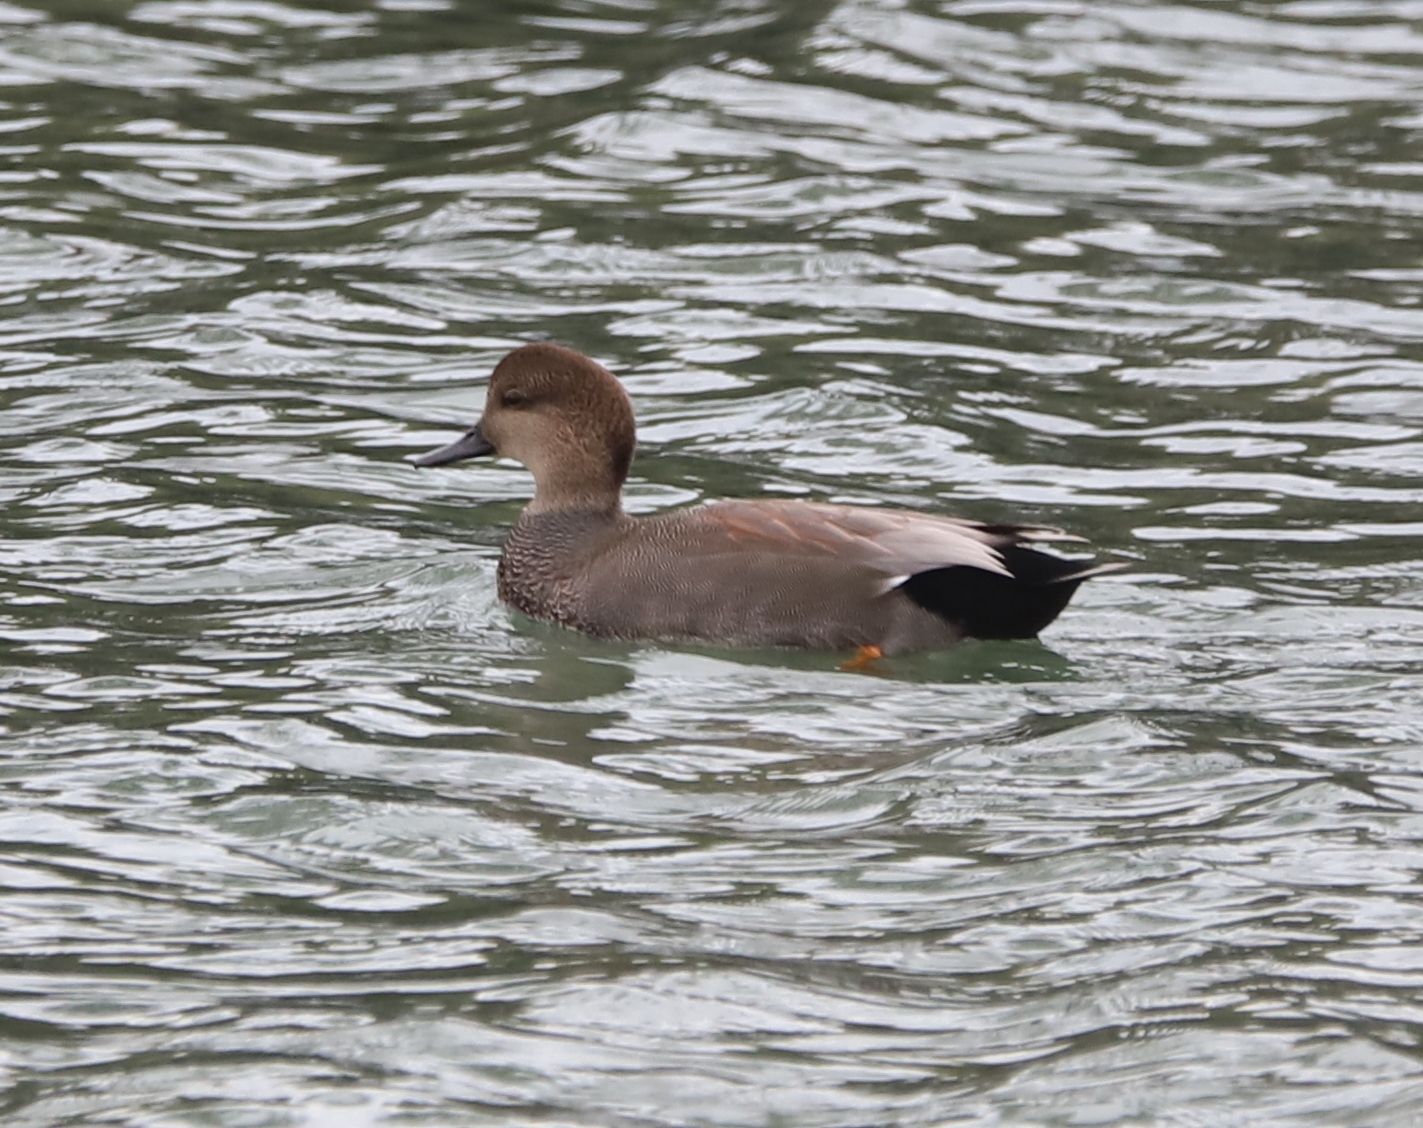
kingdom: Animalia
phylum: Chordata
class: Aves
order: Anseriformes
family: Anatidae
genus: Mareca
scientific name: Mareca strepera
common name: Gadwall
